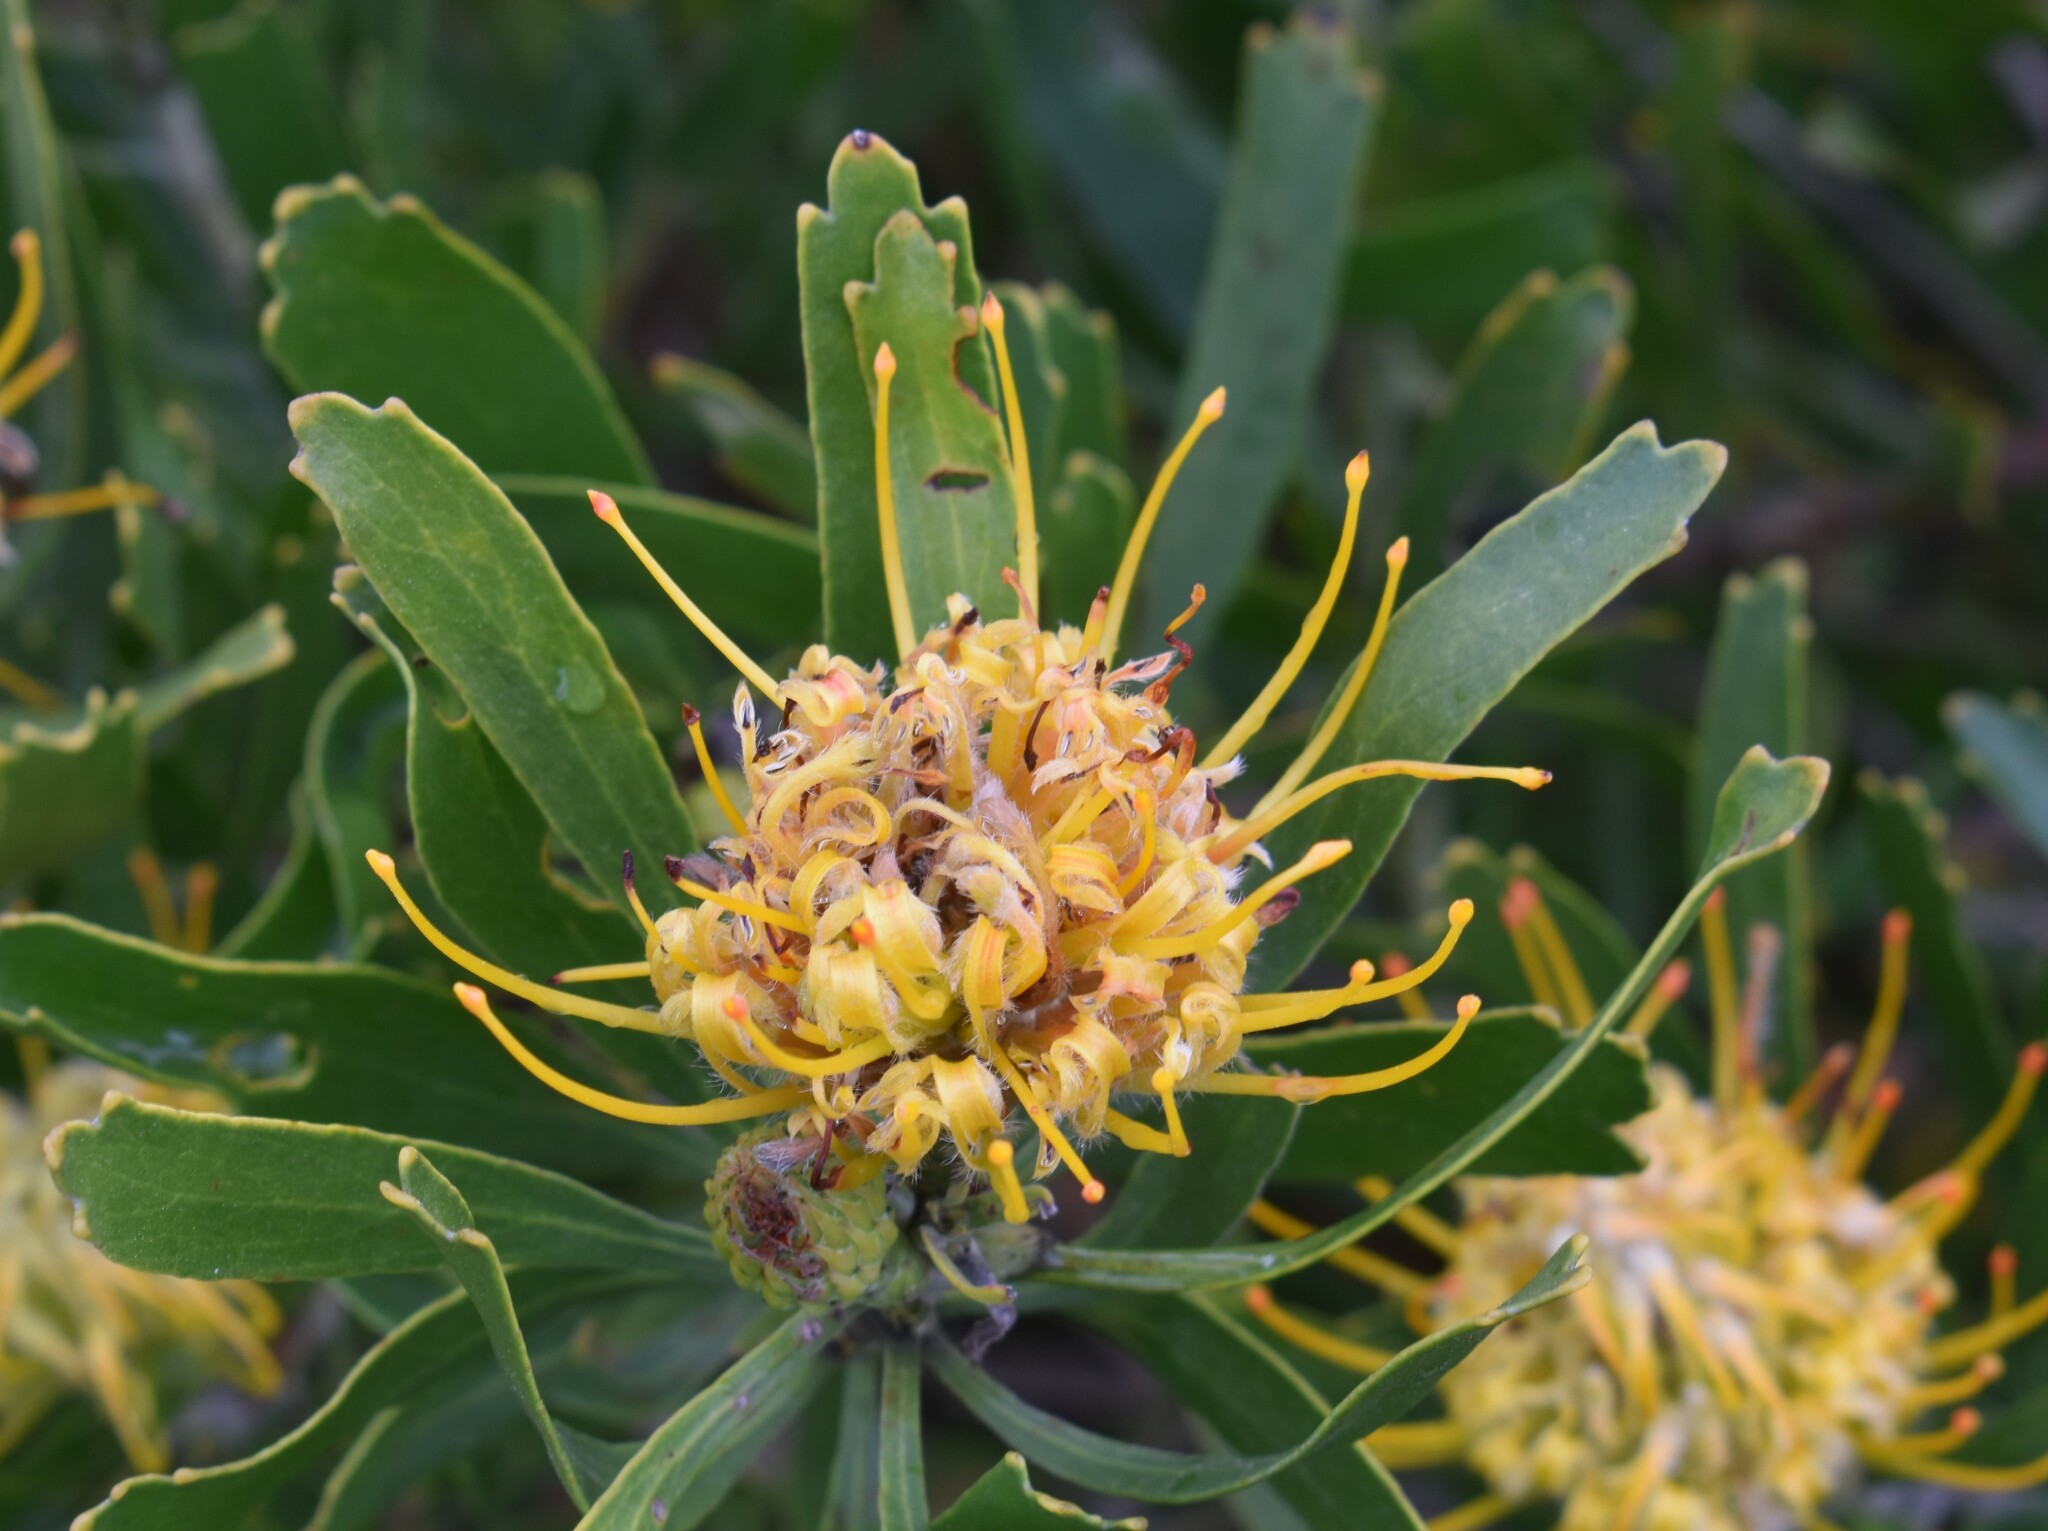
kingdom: Plantae
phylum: Tracheophyta
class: Magnoliopsida
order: Proteales
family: Proteaceae
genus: Leucospermum
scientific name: Leucospermum cuneiforme
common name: Common pincushion
